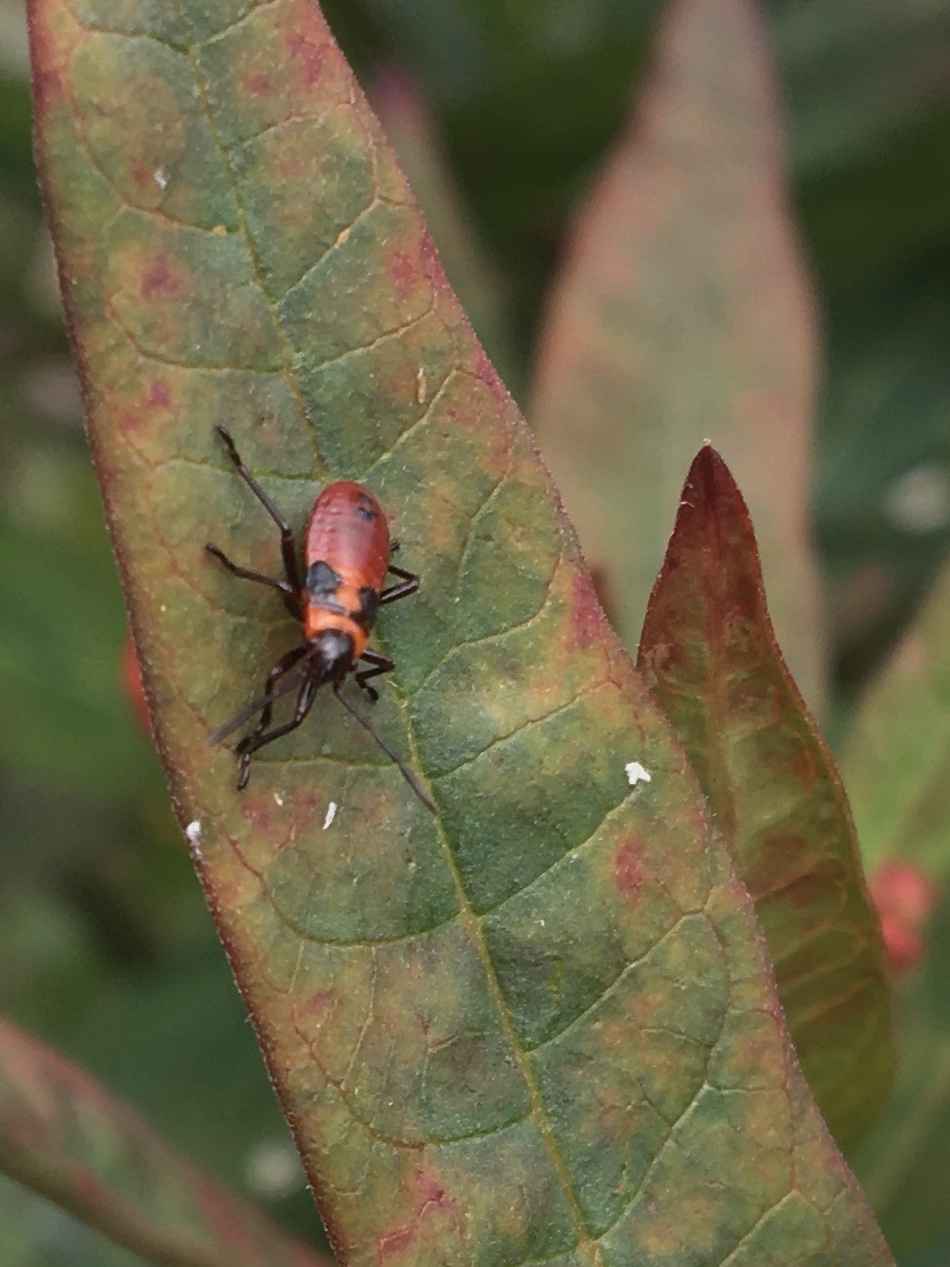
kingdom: Animalia
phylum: Arthropoda
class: Insecta
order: Hemiptera
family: Lygaeidae
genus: Oncopeltus
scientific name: Oncopeltus fasciatus
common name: Large milkweed bug
